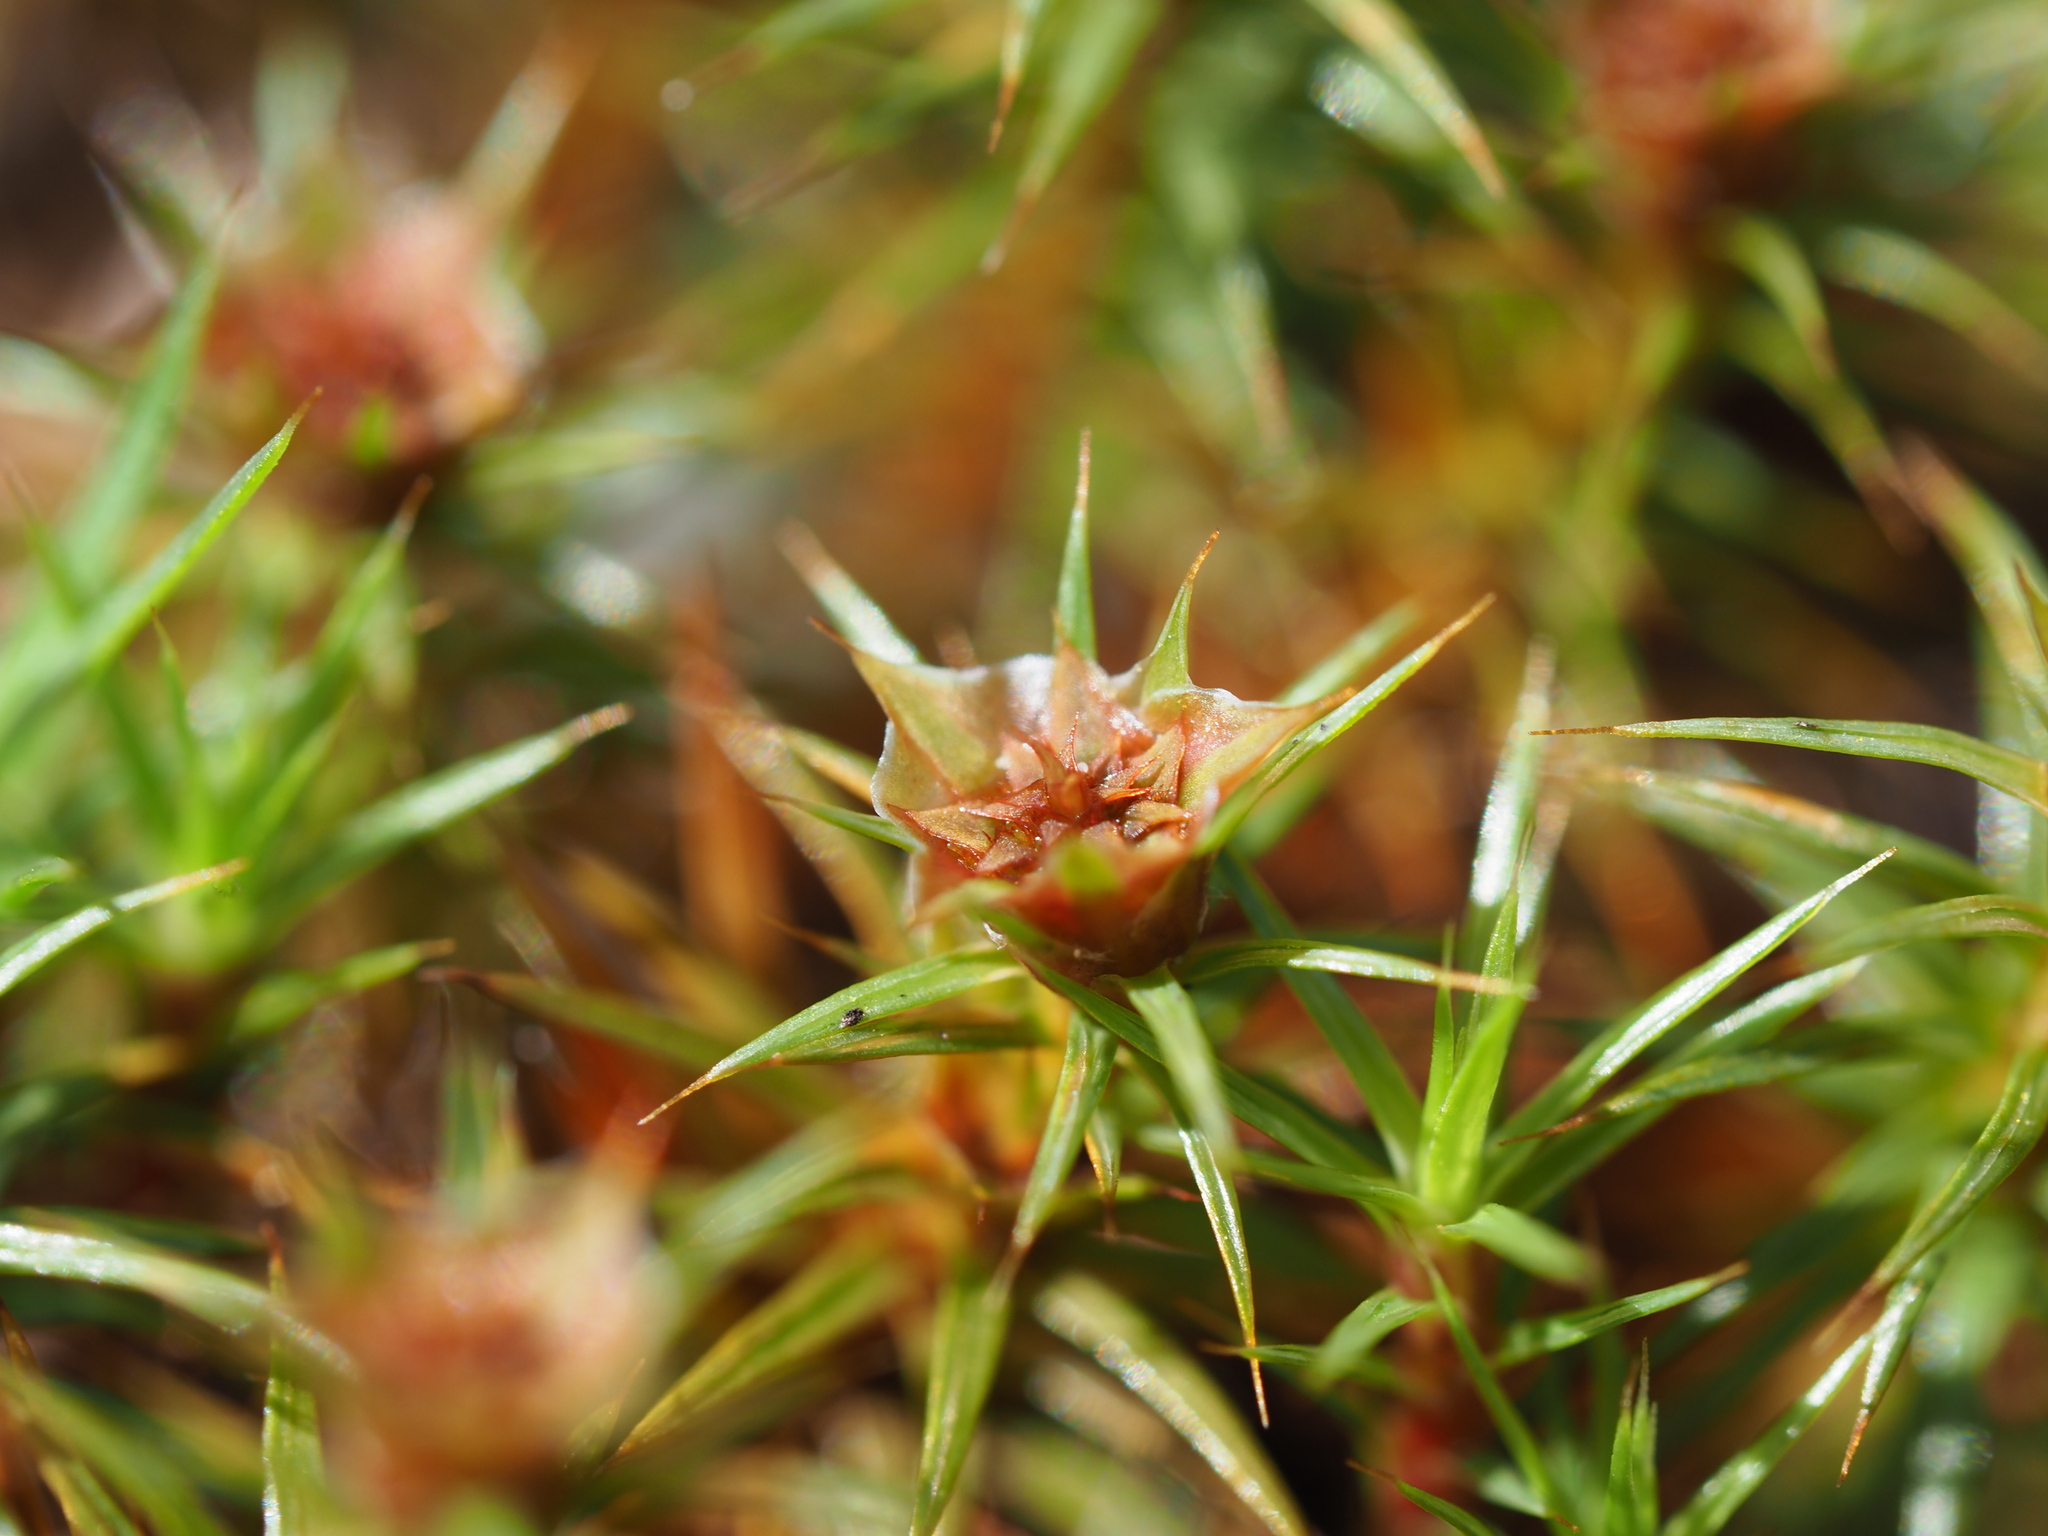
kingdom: Plantae
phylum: Bryophyta
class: Polytrichopsida
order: Polytrichales
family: Polytrichaceae
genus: Polytrichum
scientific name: Polytrichum juniperinum
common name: Juniper haircap moss
